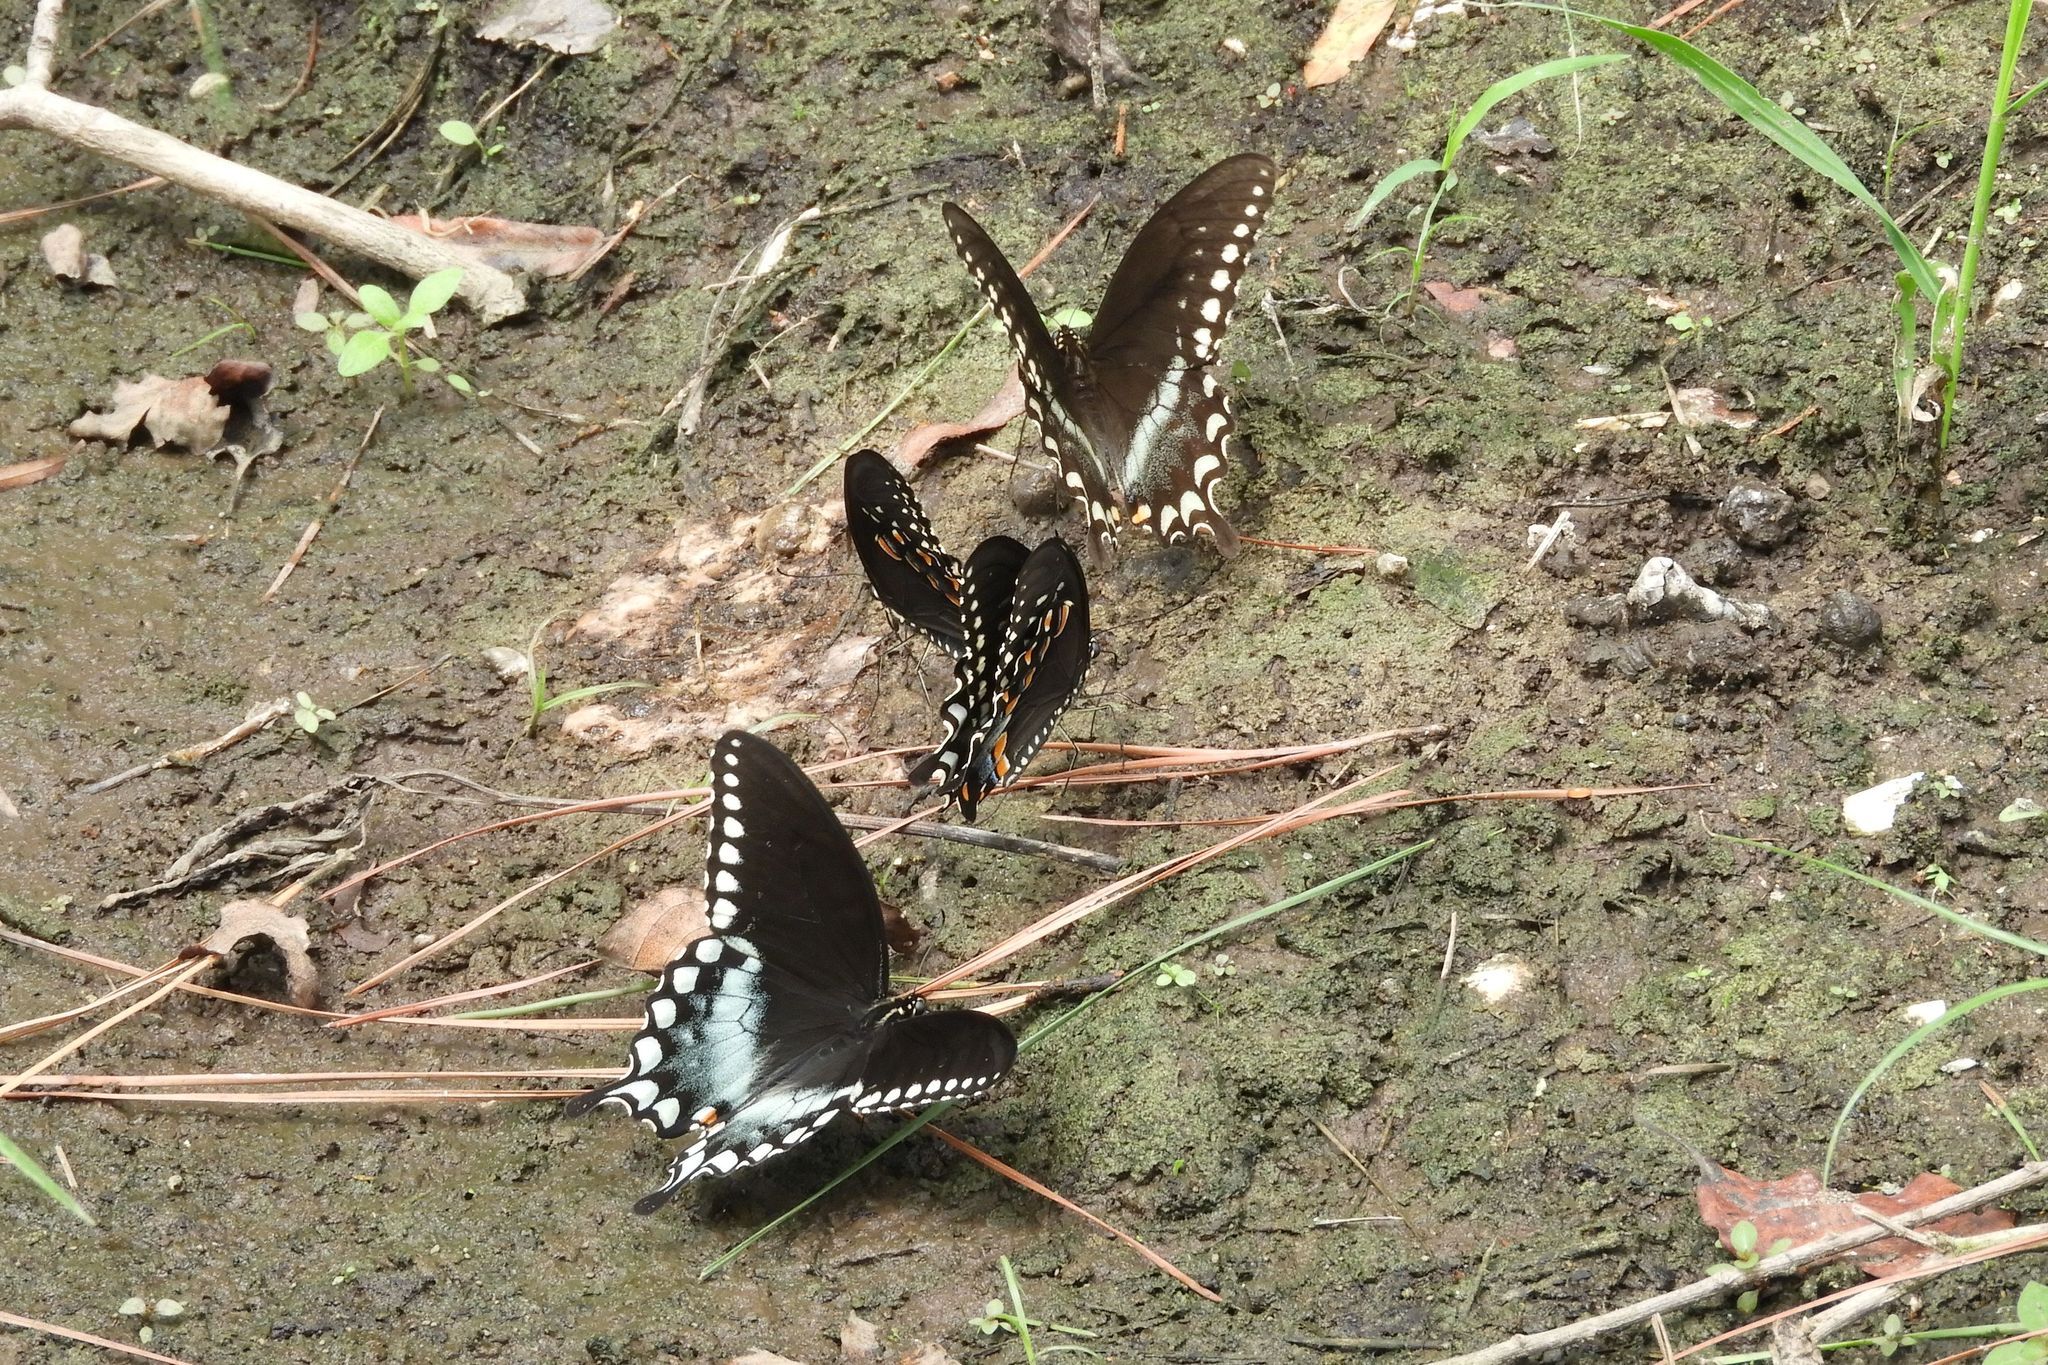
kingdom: Animalia
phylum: Arthropoda
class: Insecta
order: Lepidoptera
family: Papilionidae
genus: Papilio
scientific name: Papilio troilus
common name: Spicebush swallowtail
